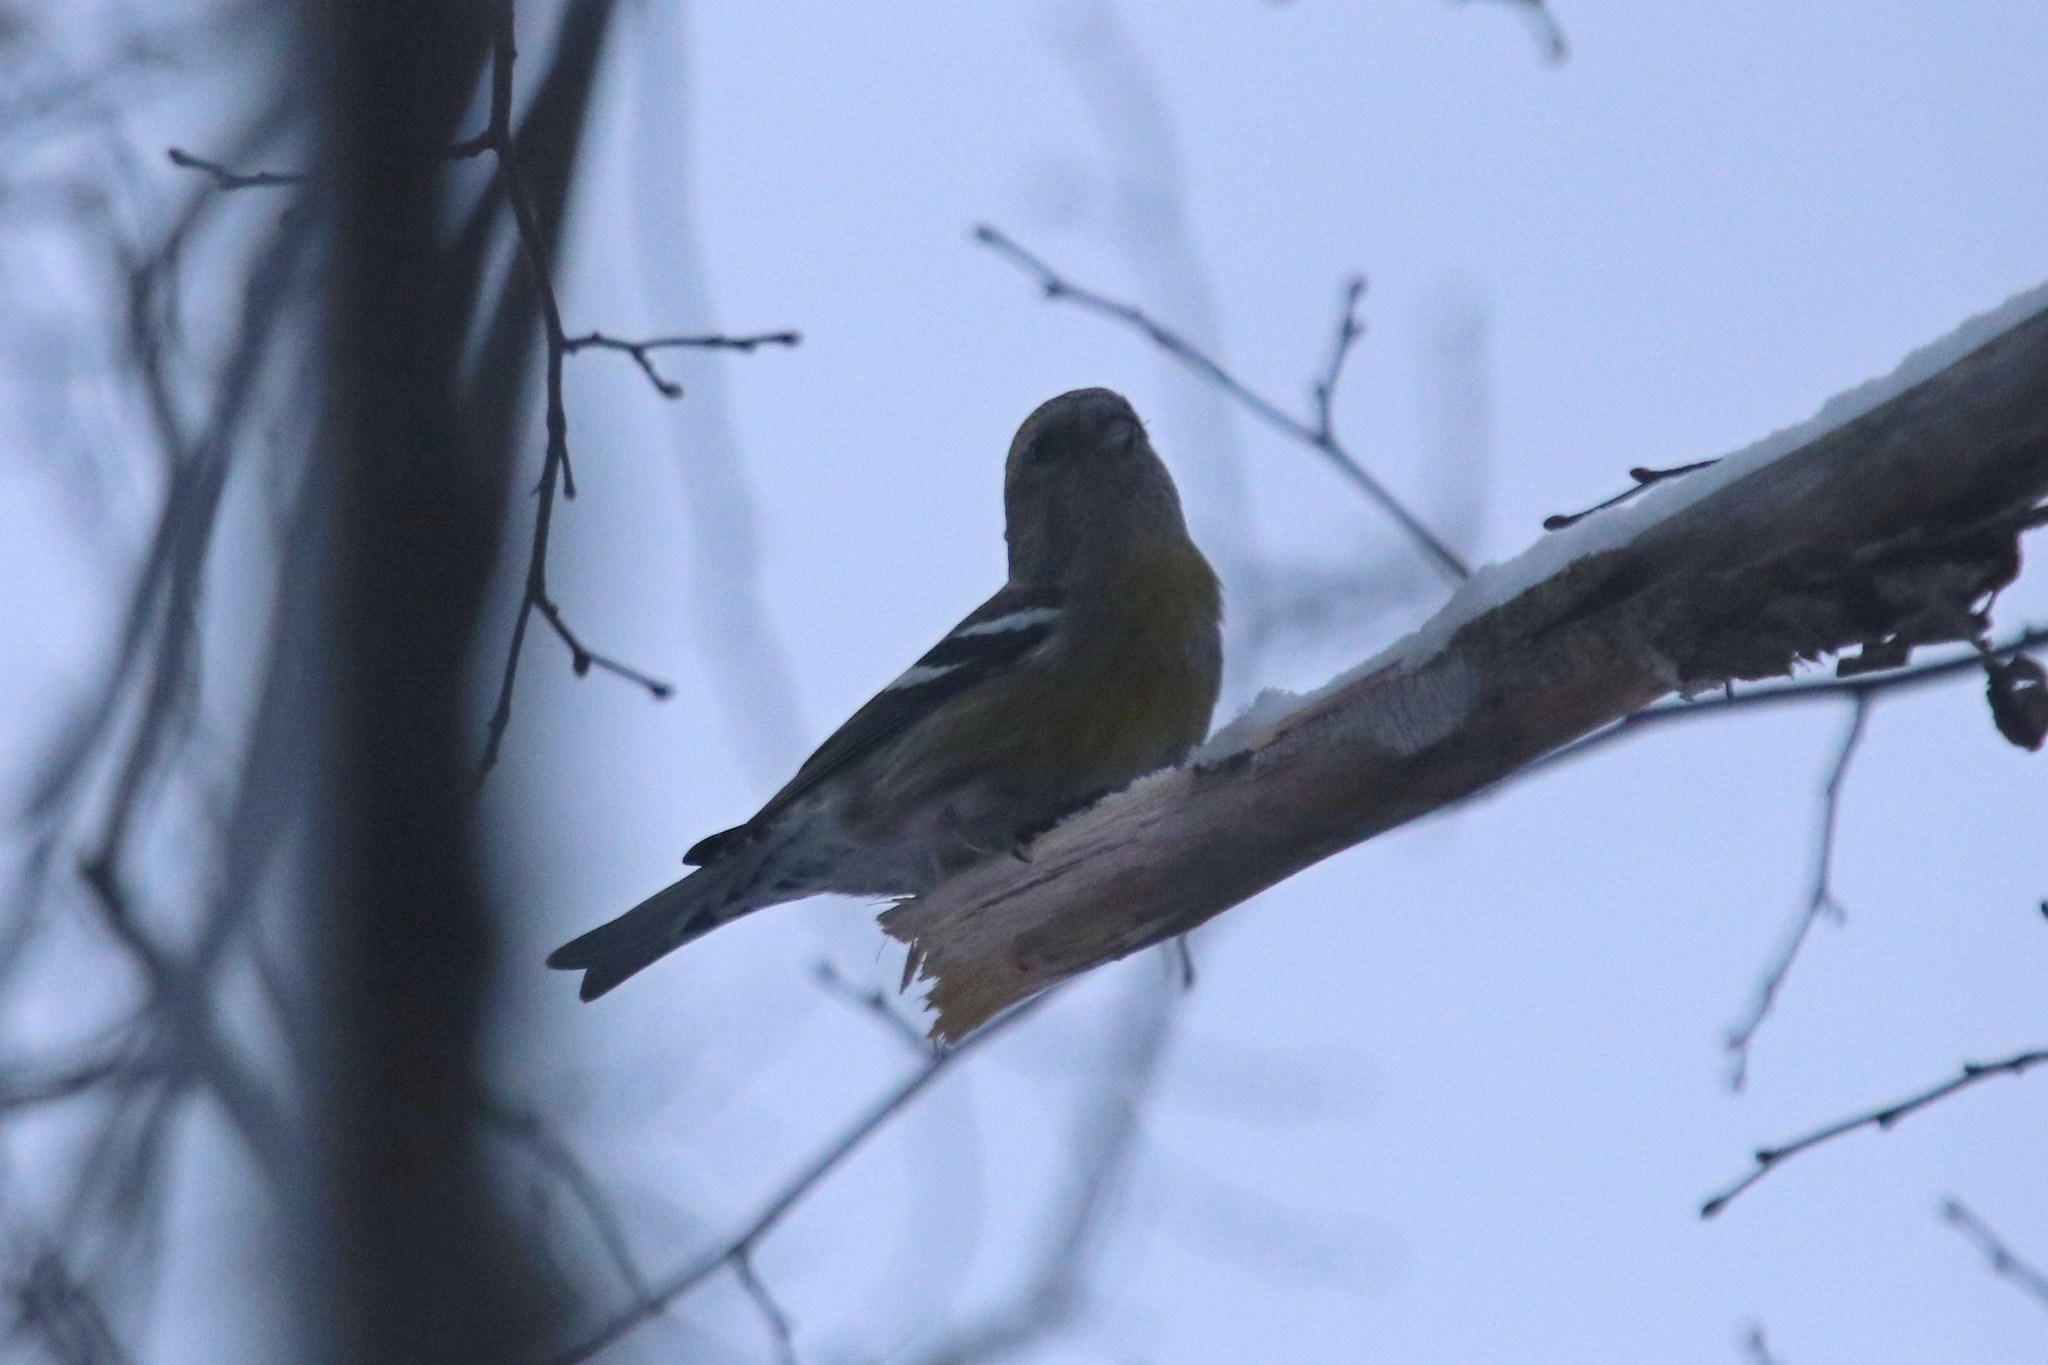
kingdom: Animalia
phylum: Chordata
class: Aves
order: Passeriformes
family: Fringillidae
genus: Loxia
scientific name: Loxia leucoptera
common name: Two-barred crossbill
